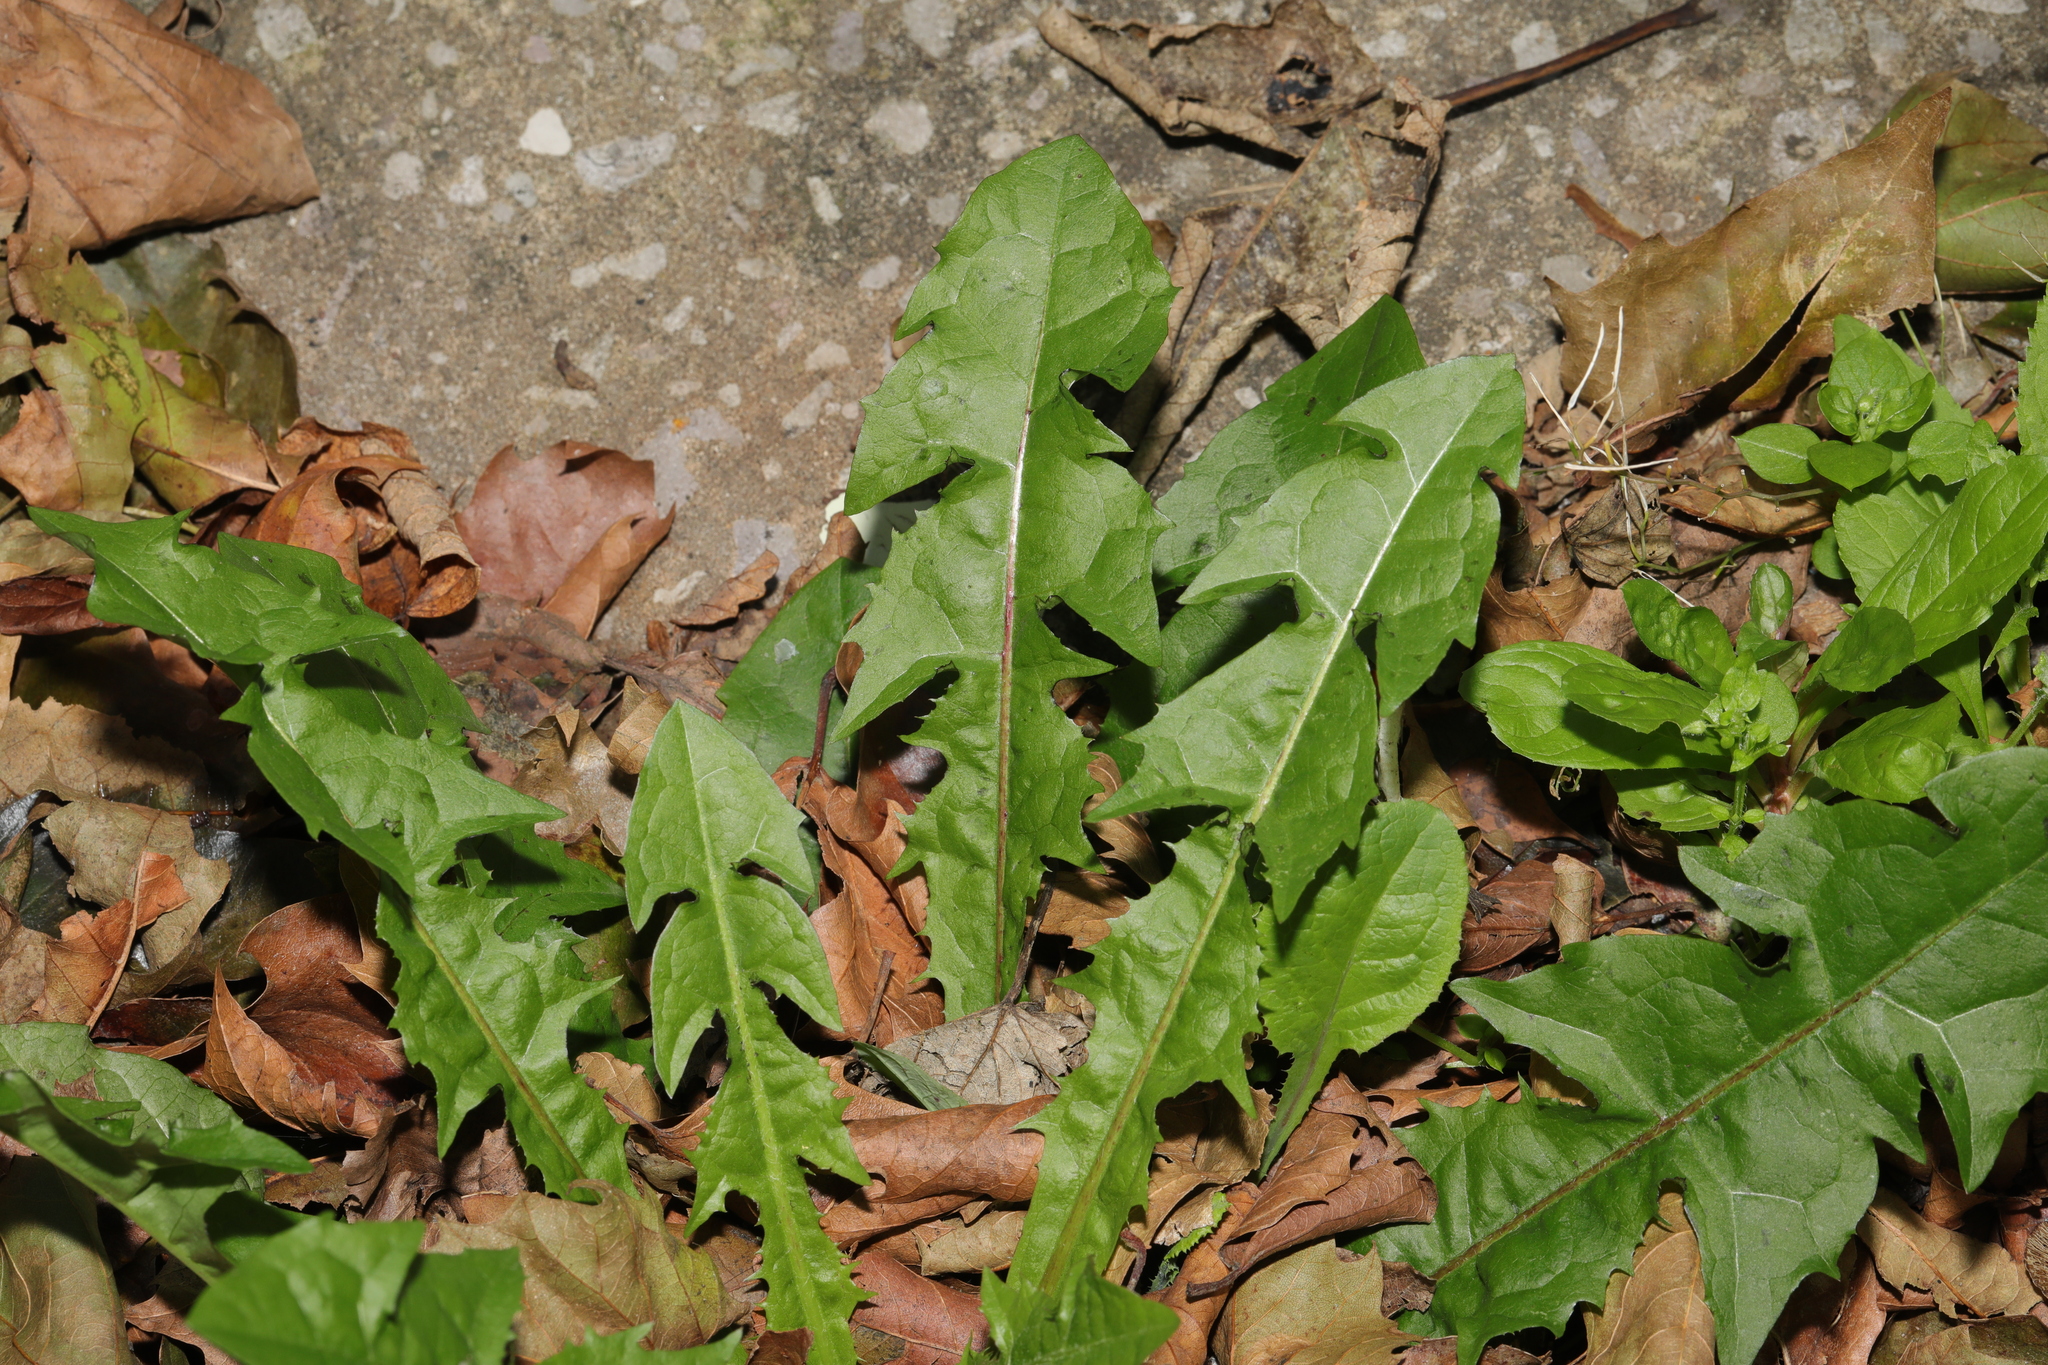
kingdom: Plantae
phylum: Tracheophyta
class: Magnoliopsida
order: Asterales
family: Asteraceae
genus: Taraxacum
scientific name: Taraxacum officinale
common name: Common dandelion
